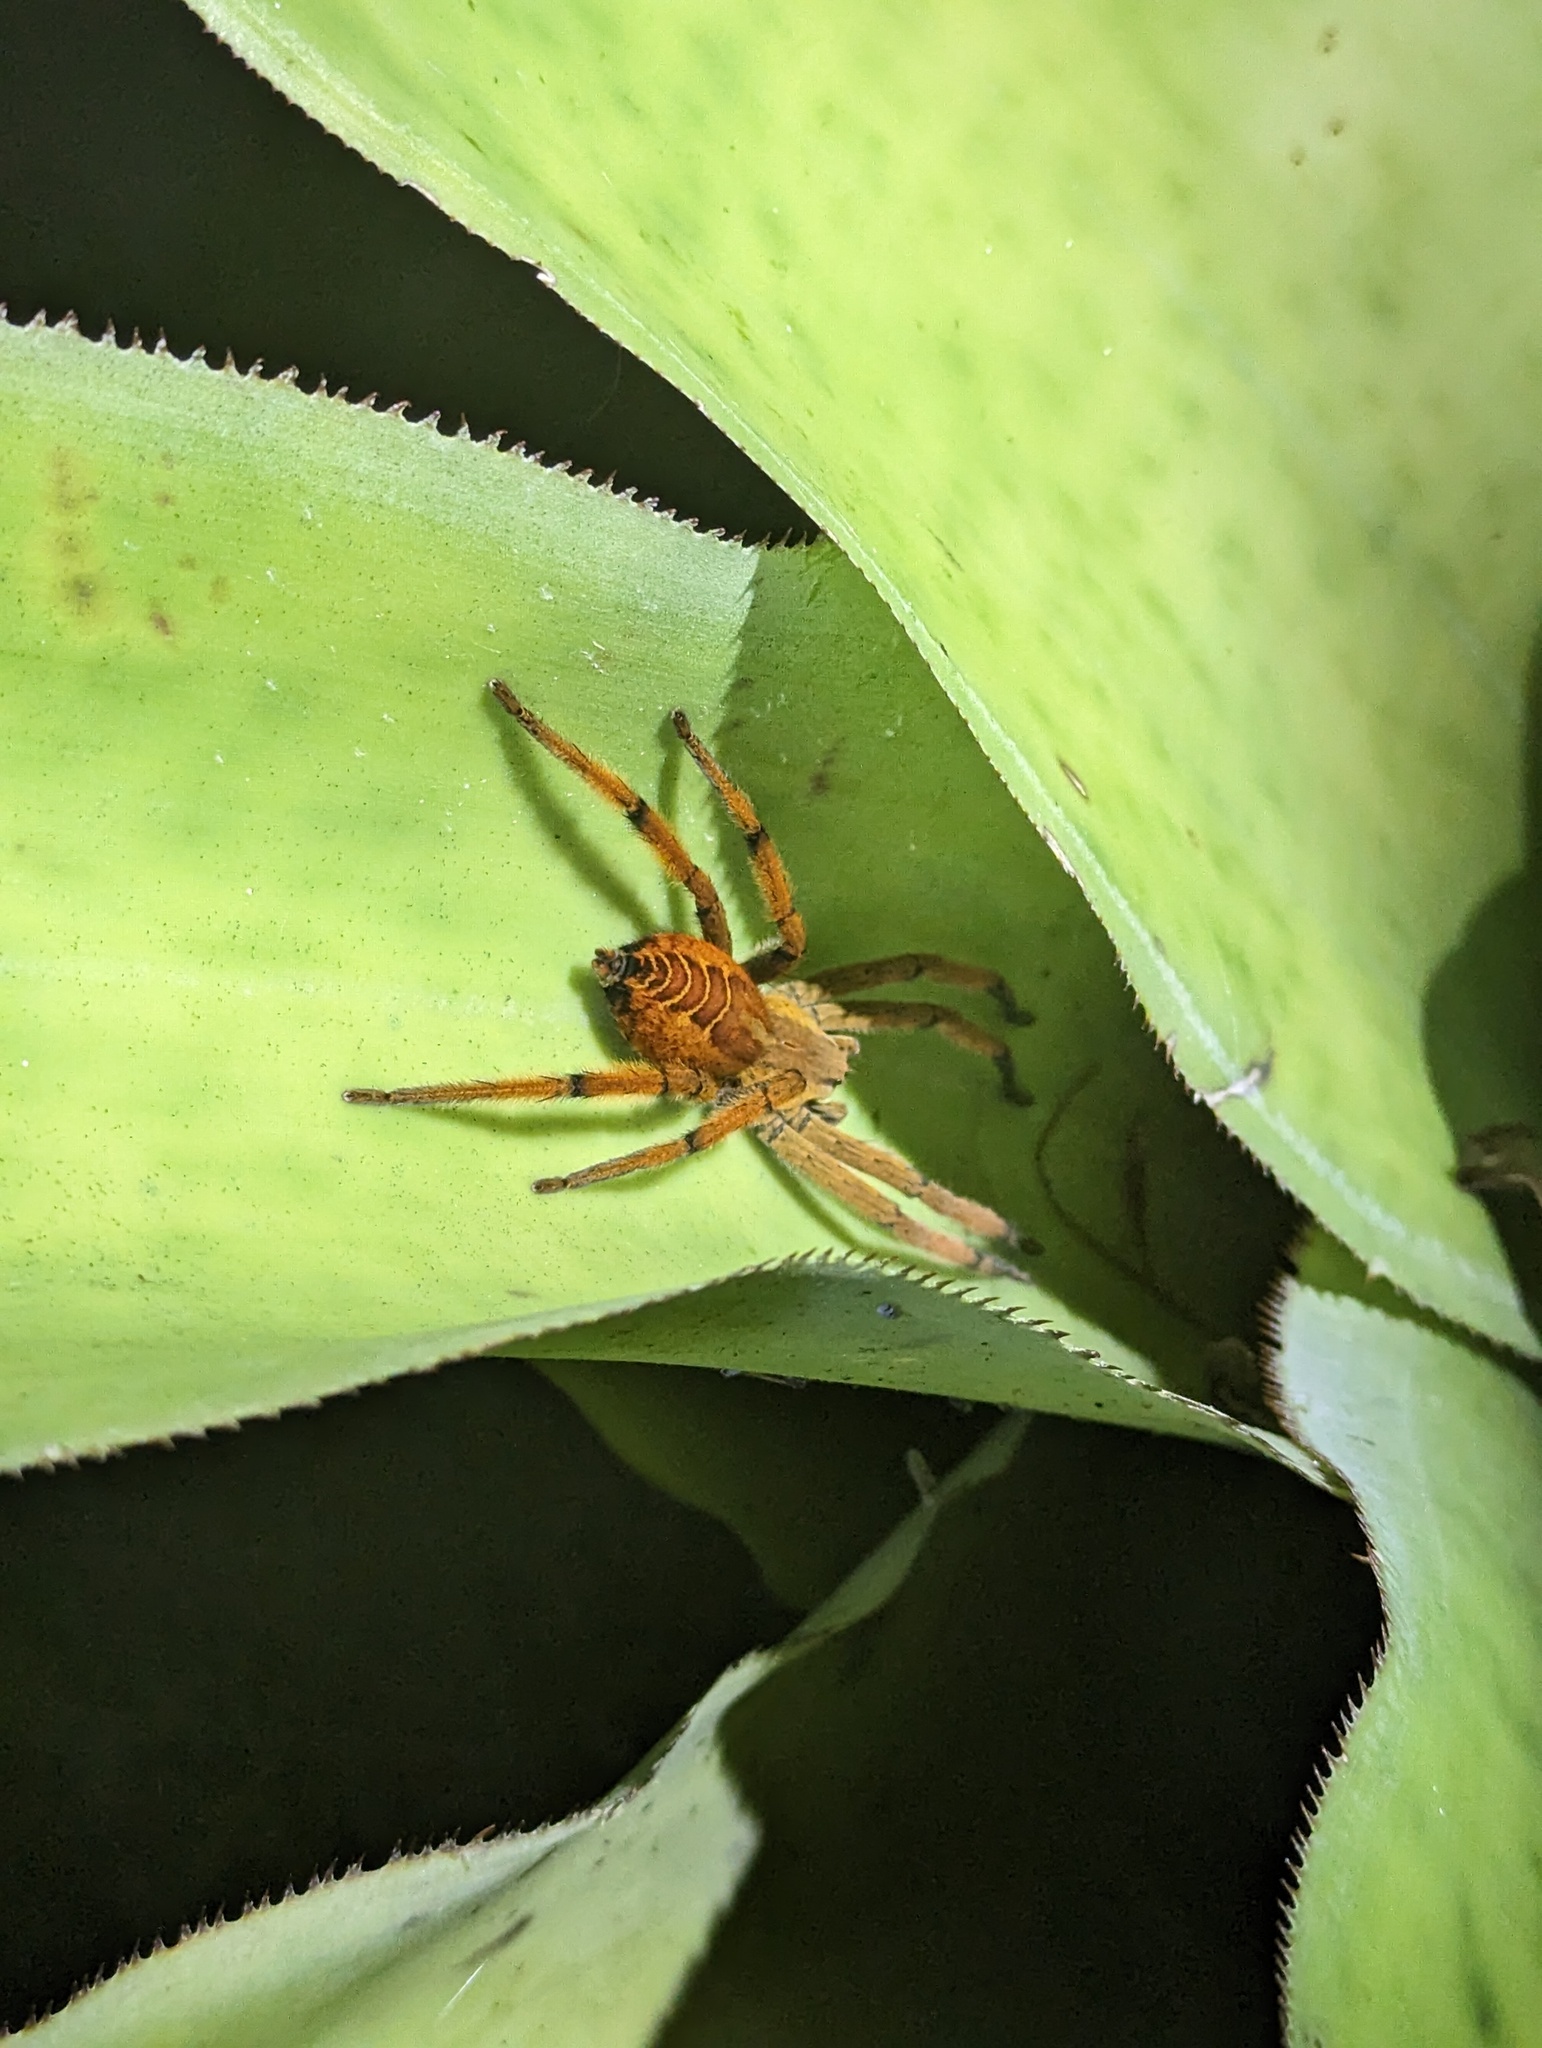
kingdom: Animalia
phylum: Arthropoda
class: Arachnida
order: Araneae
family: Trechaleidae
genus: Cupiennius
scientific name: Cupiennius getazi
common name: Wandering spiders
